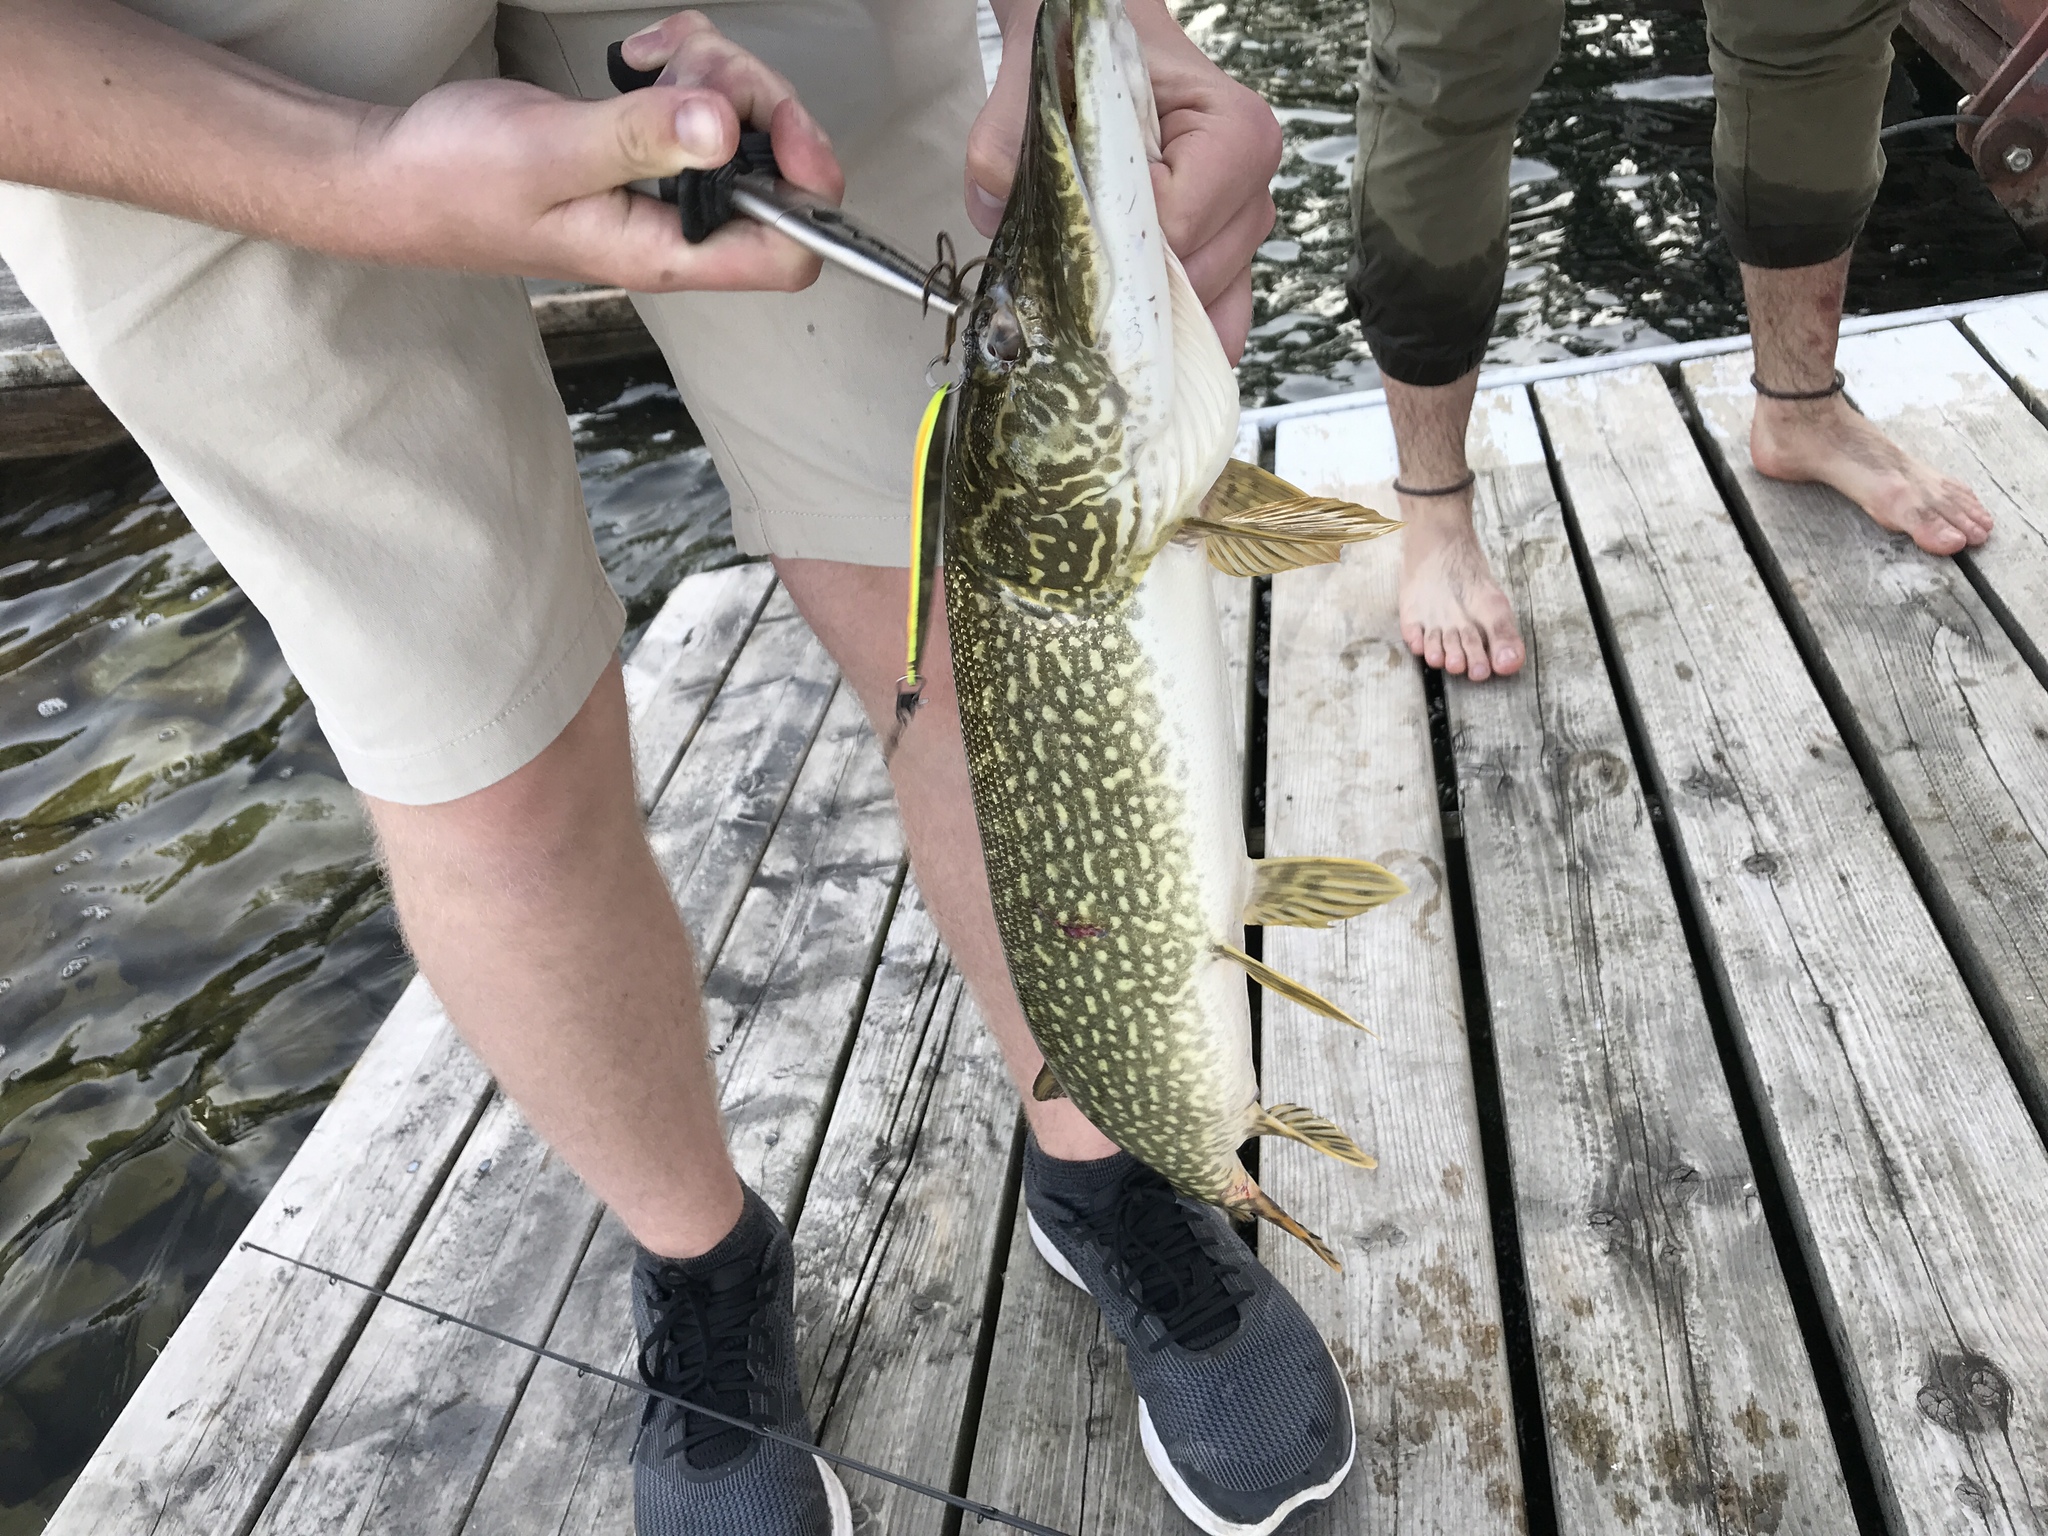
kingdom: Animalia
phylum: Chordata
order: Esociformes
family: Esocidae
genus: Esox
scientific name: Esox lucius
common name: Northern pike
